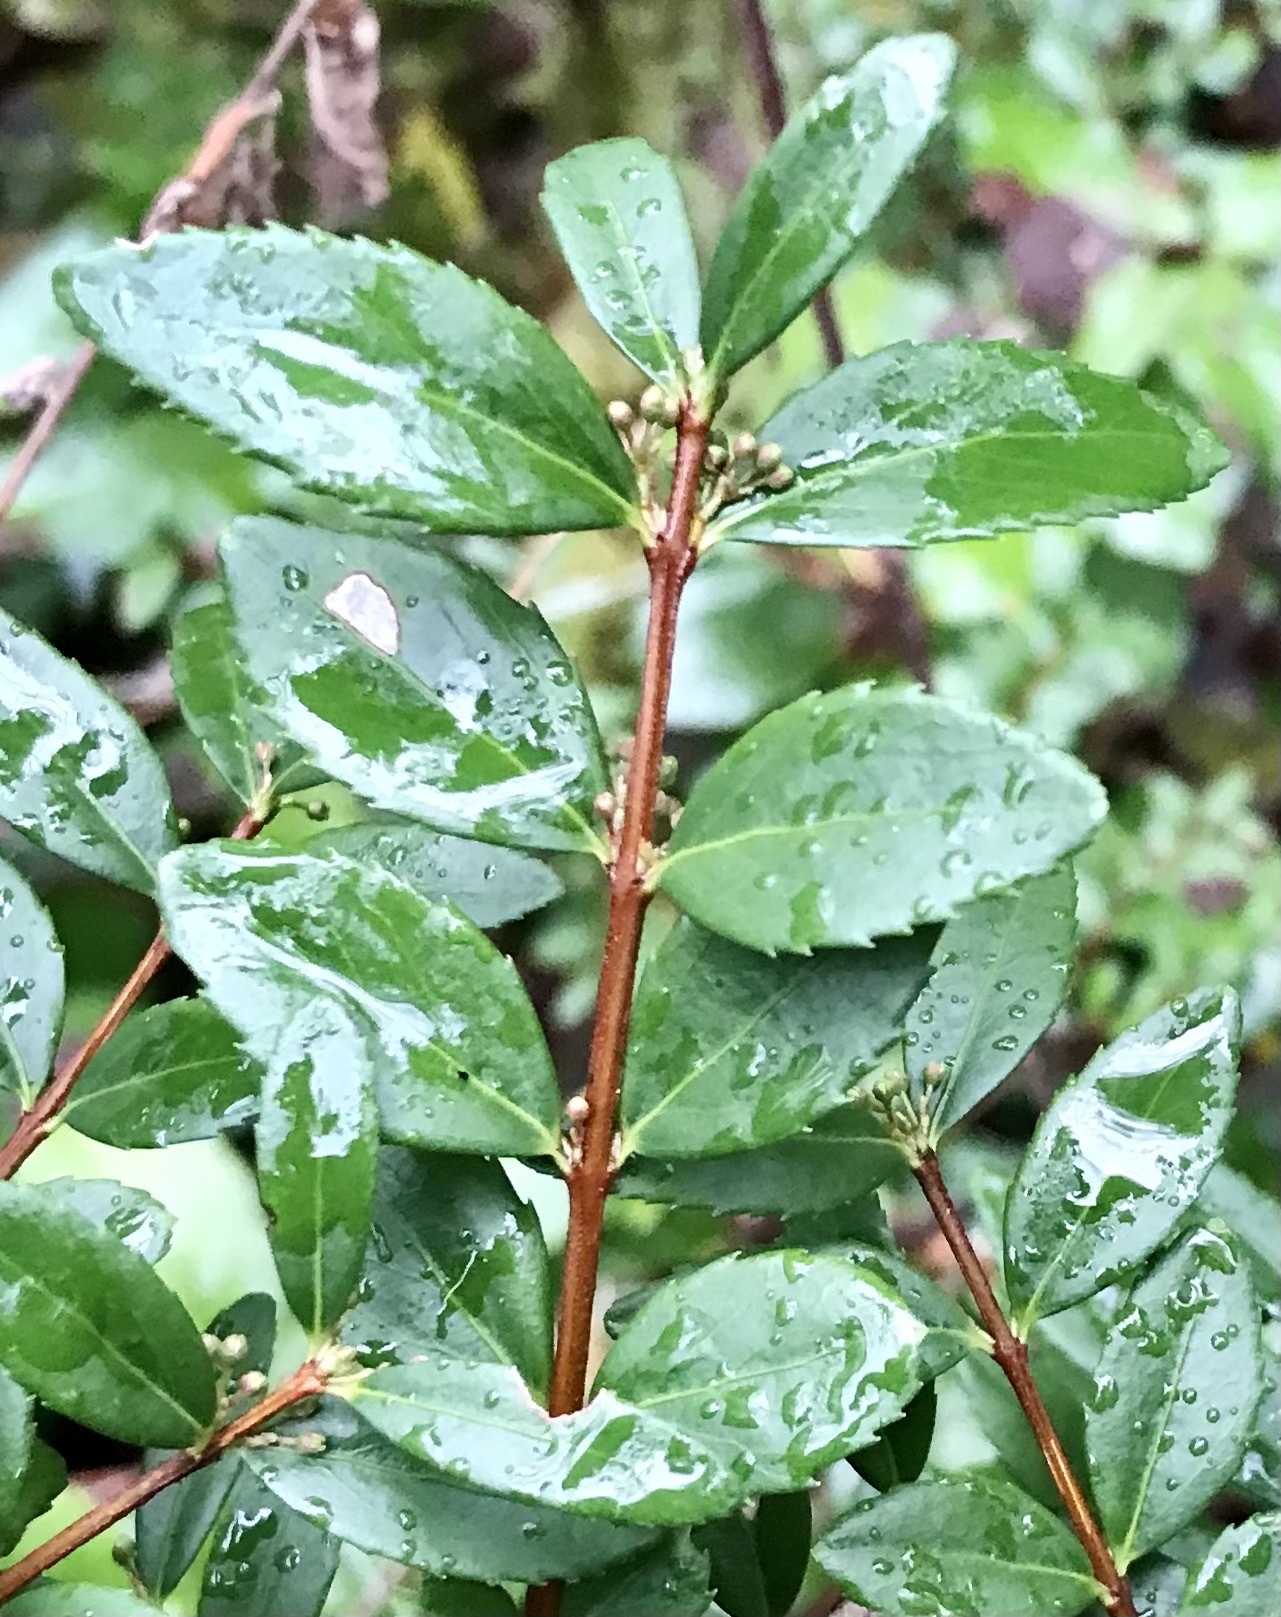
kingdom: Plantae
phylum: Tracheophyta
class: Magnoliopsida
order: Celastrales
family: Celastraceae
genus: Paxistima
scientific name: Paxistima myrsinites
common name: Mountain-lover
